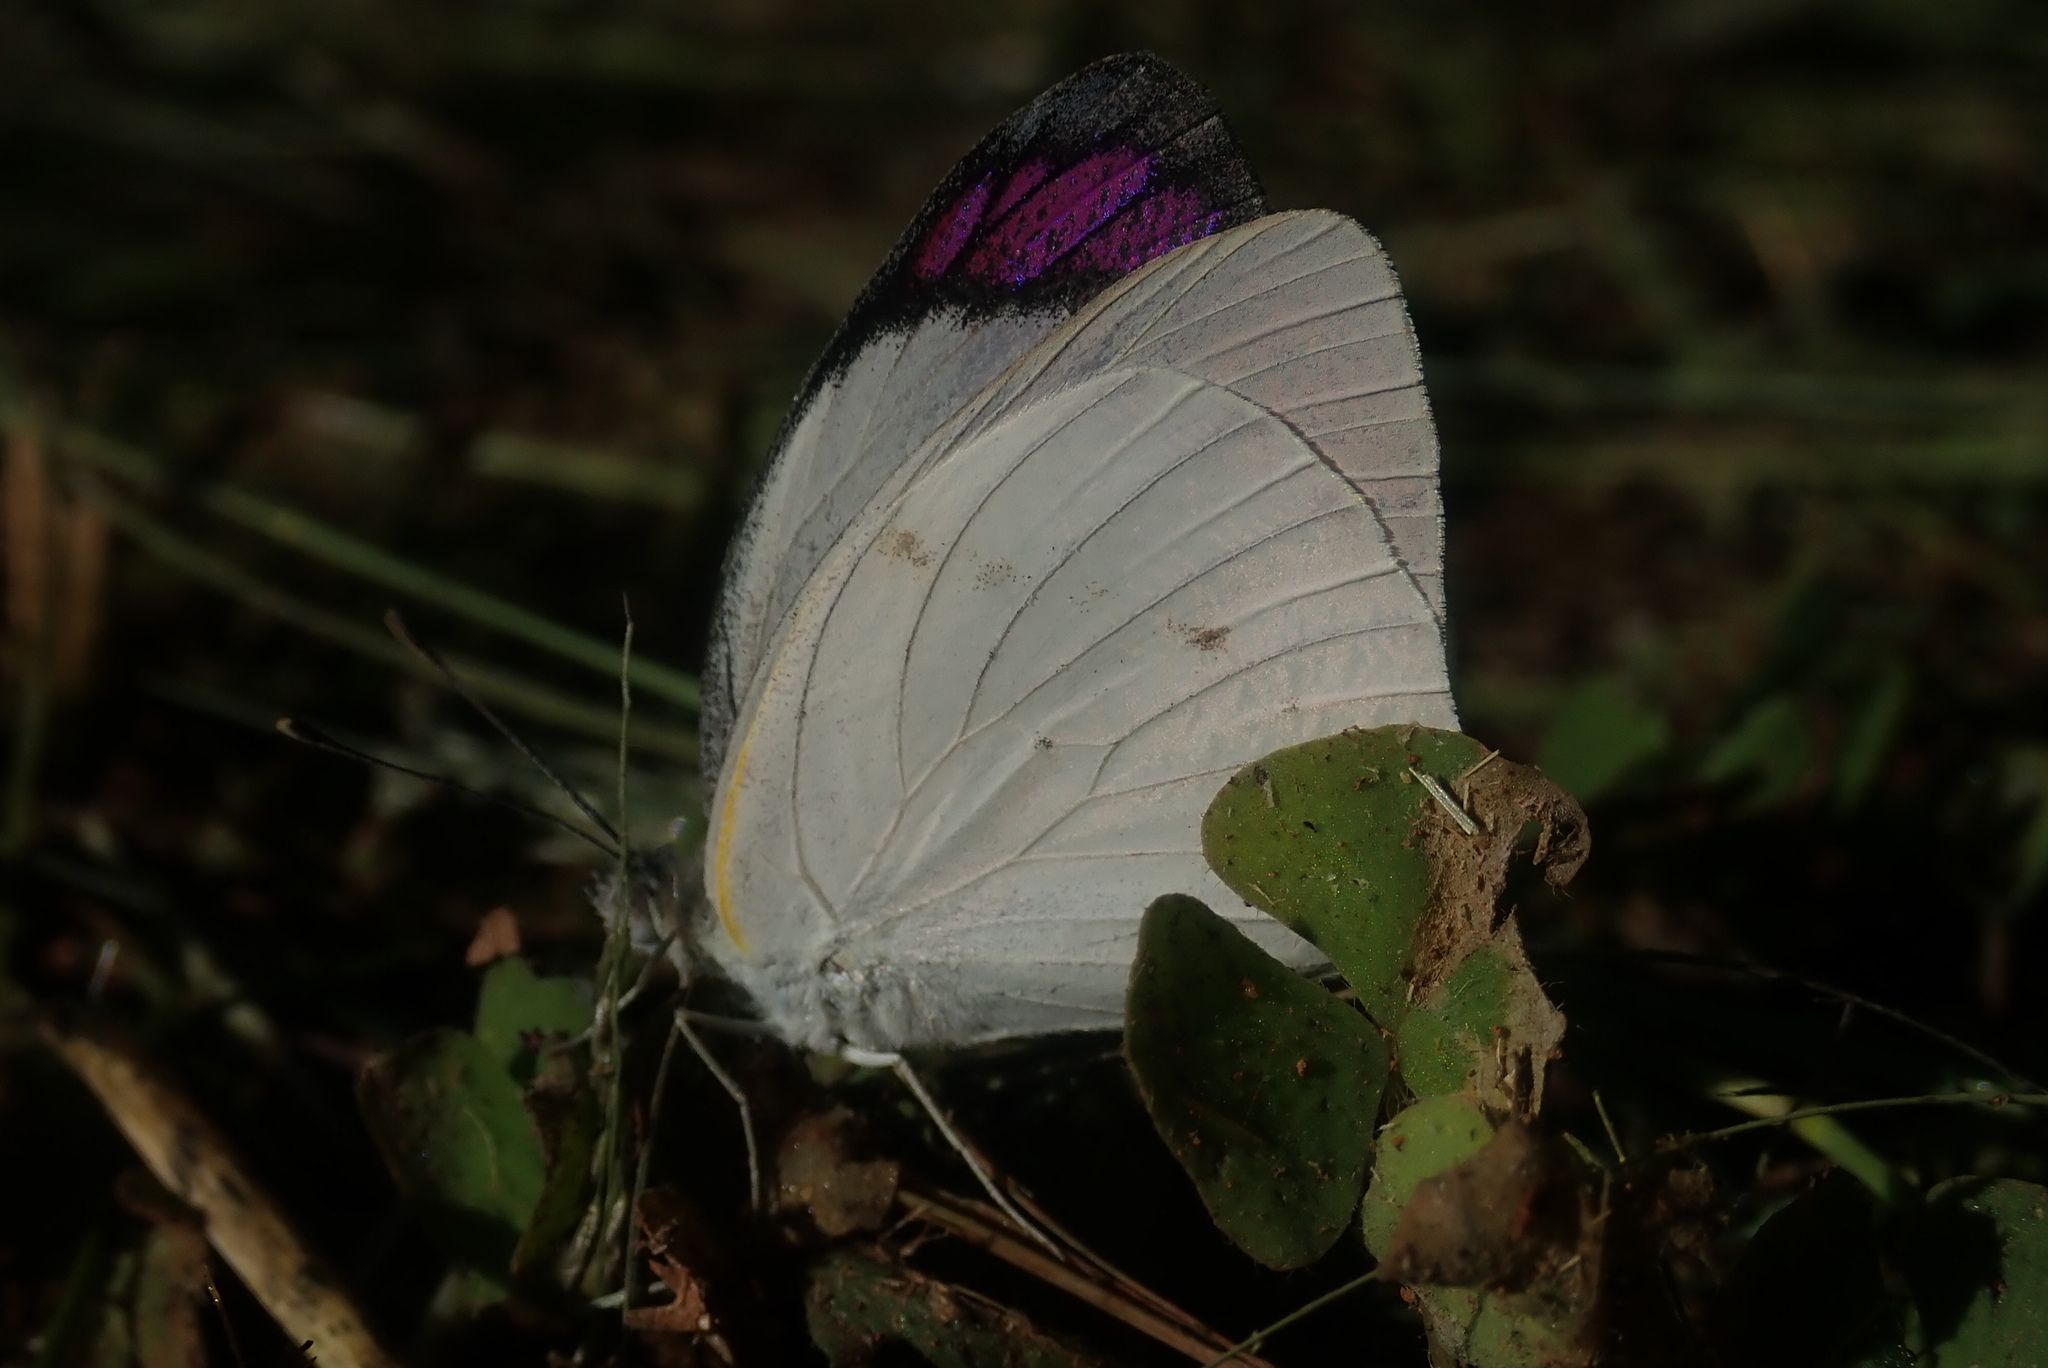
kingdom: Animalia
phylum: Arthropoda
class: Insecta
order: Lepidoptera
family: Pieridae
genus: Colotis
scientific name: Colotis ione
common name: Bushveld purple tip
